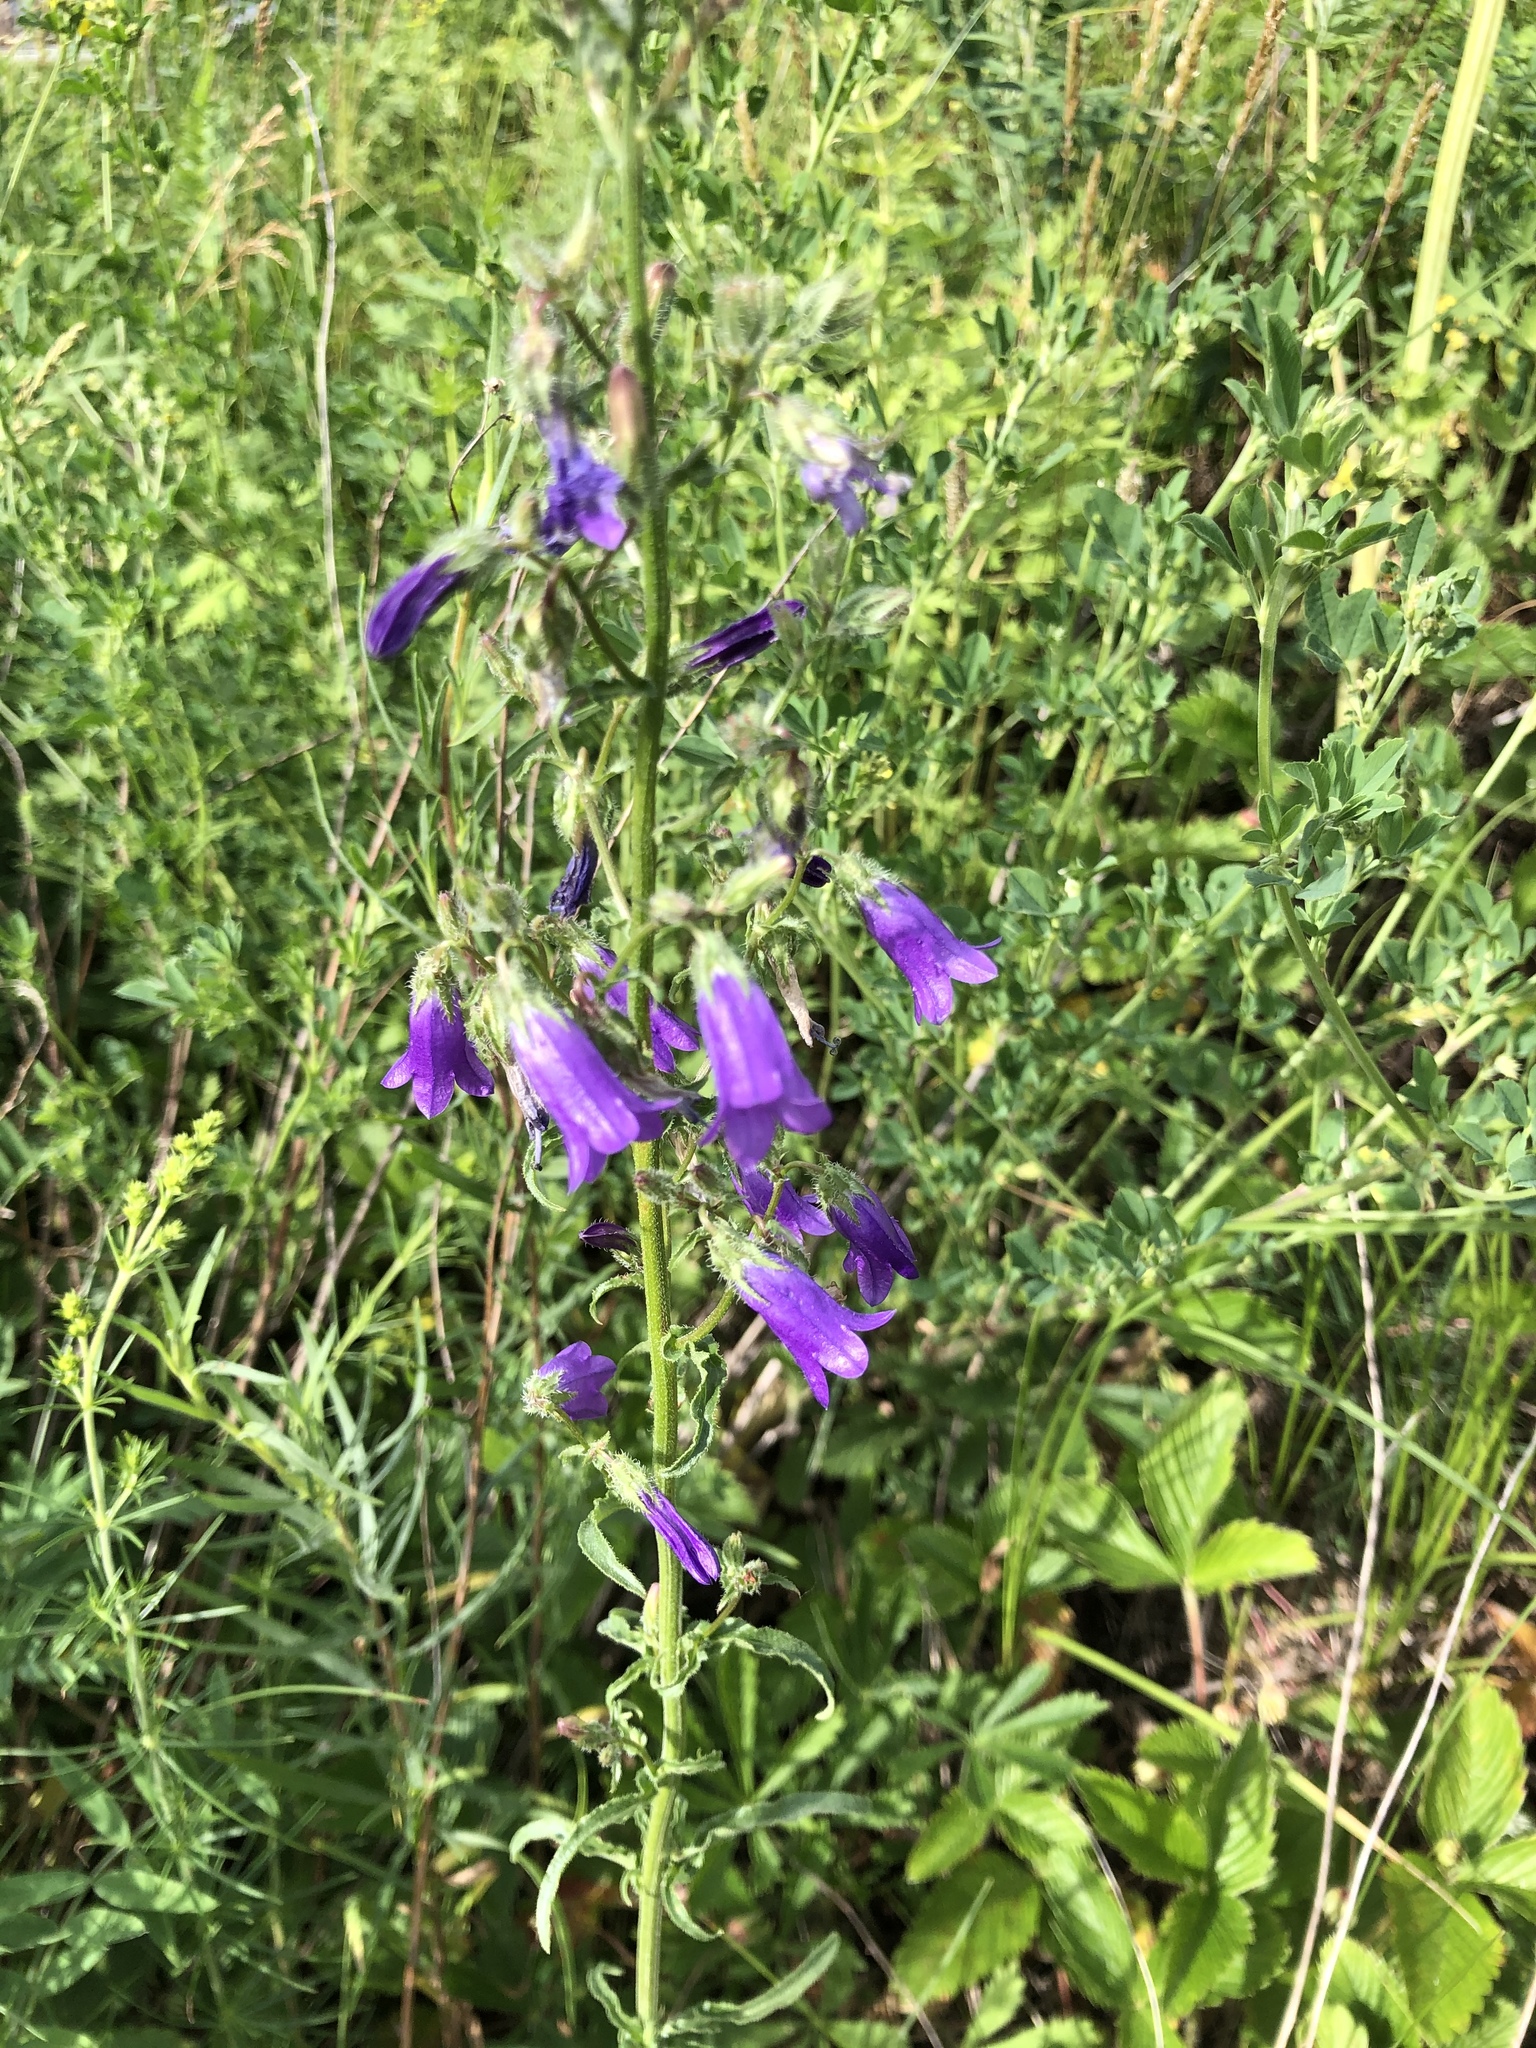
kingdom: Plantae
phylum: Tracheophyta
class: Magnoliopsida
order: Asterales
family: Campanulaceae
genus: Campanula
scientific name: Campanula sibirica
